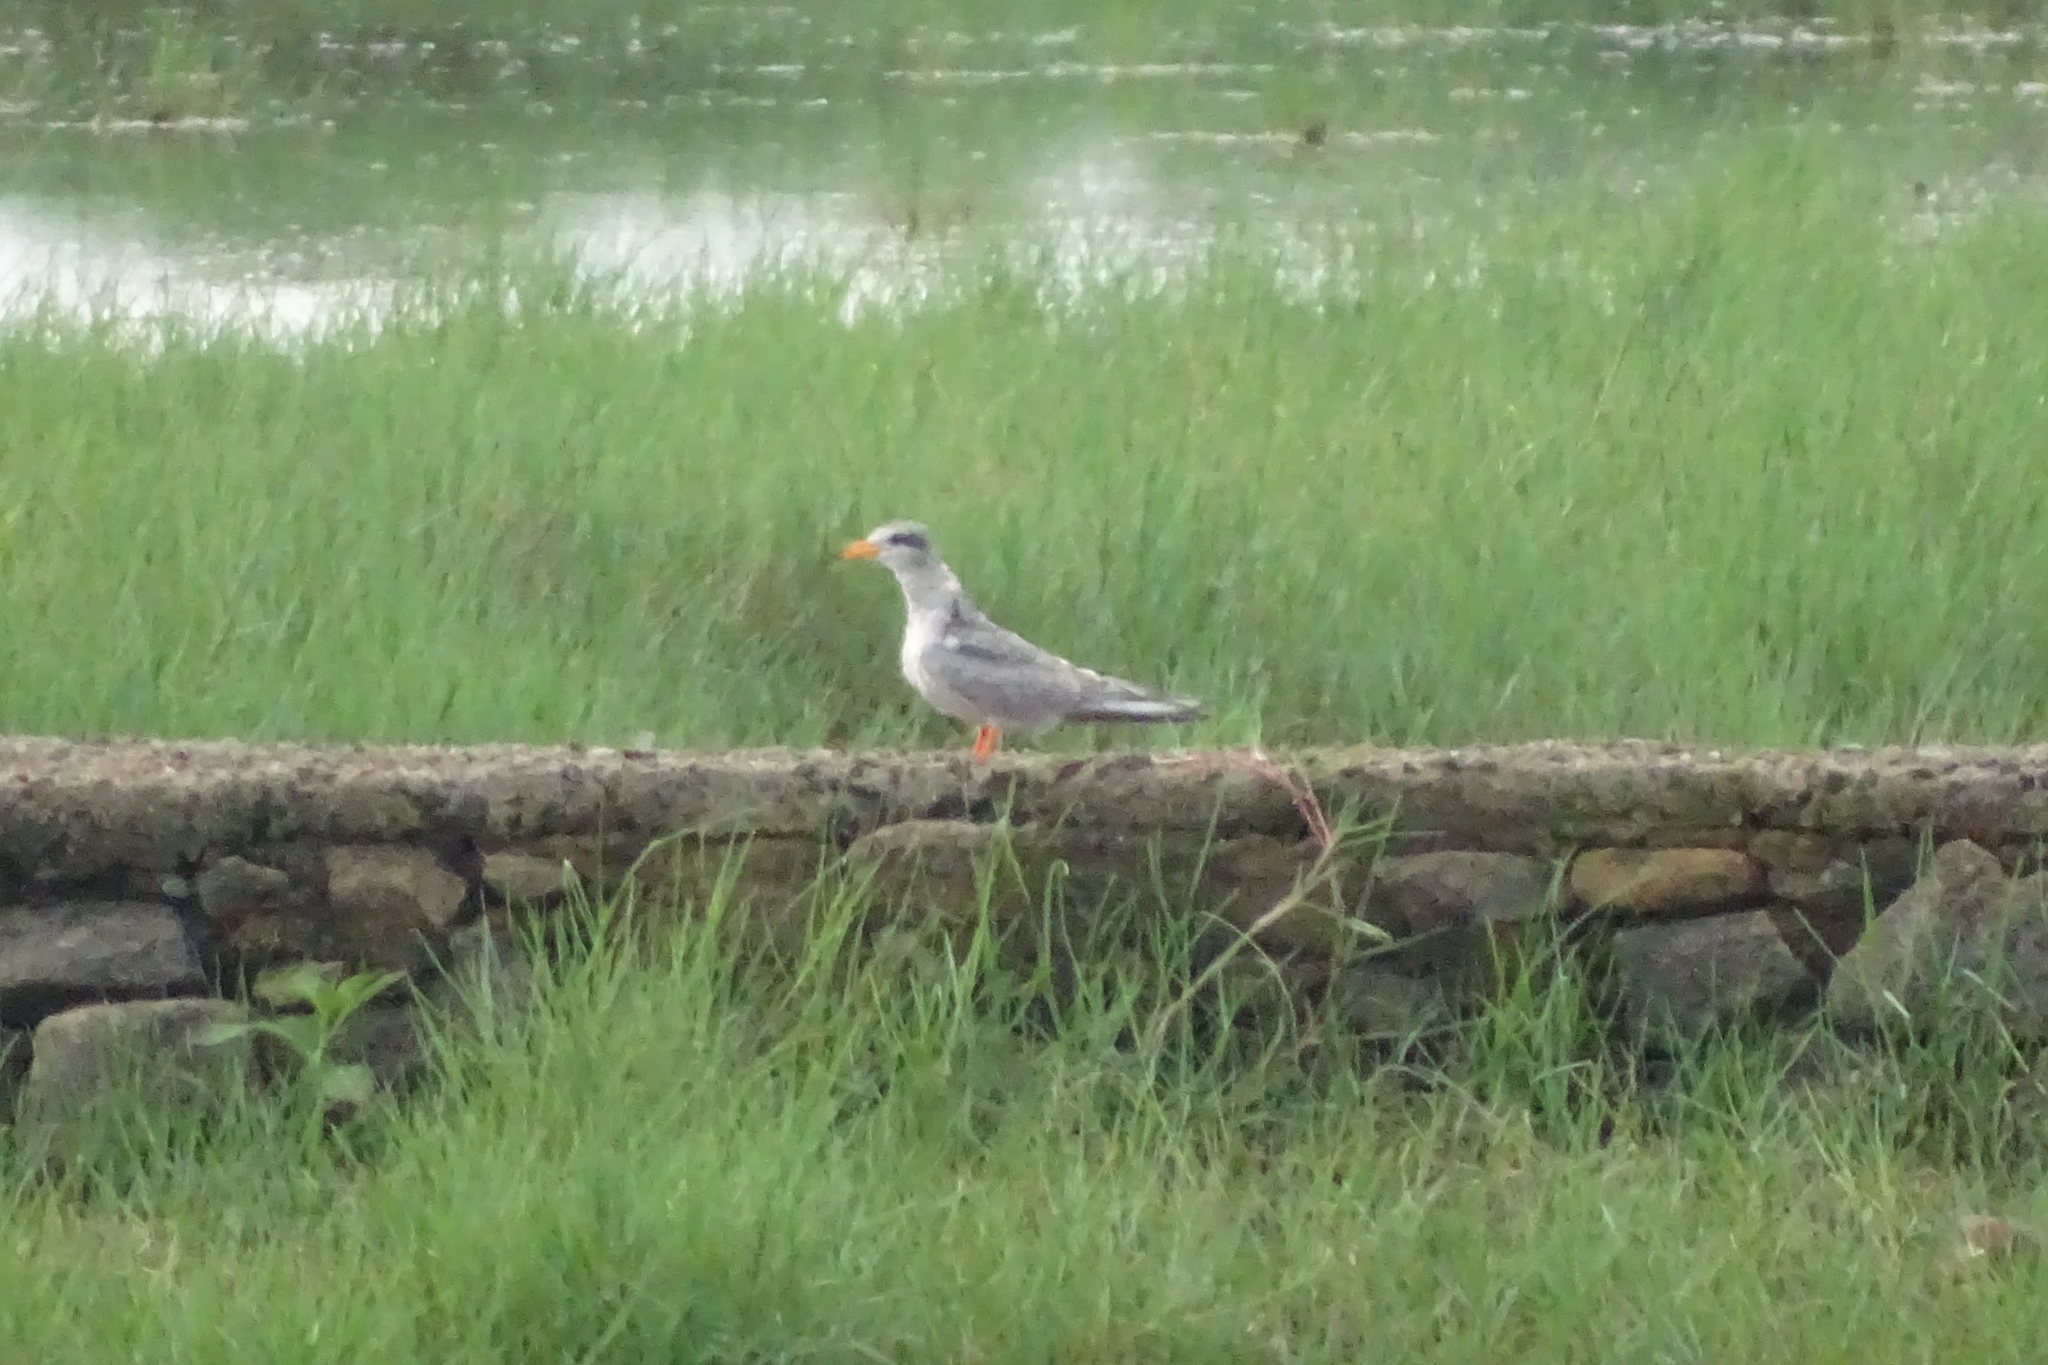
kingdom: Animalia
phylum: Chordata
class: Aves
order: Charadriiformes
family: Laridae
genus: Sterna
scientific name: Sterna aurantia
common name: River tern
